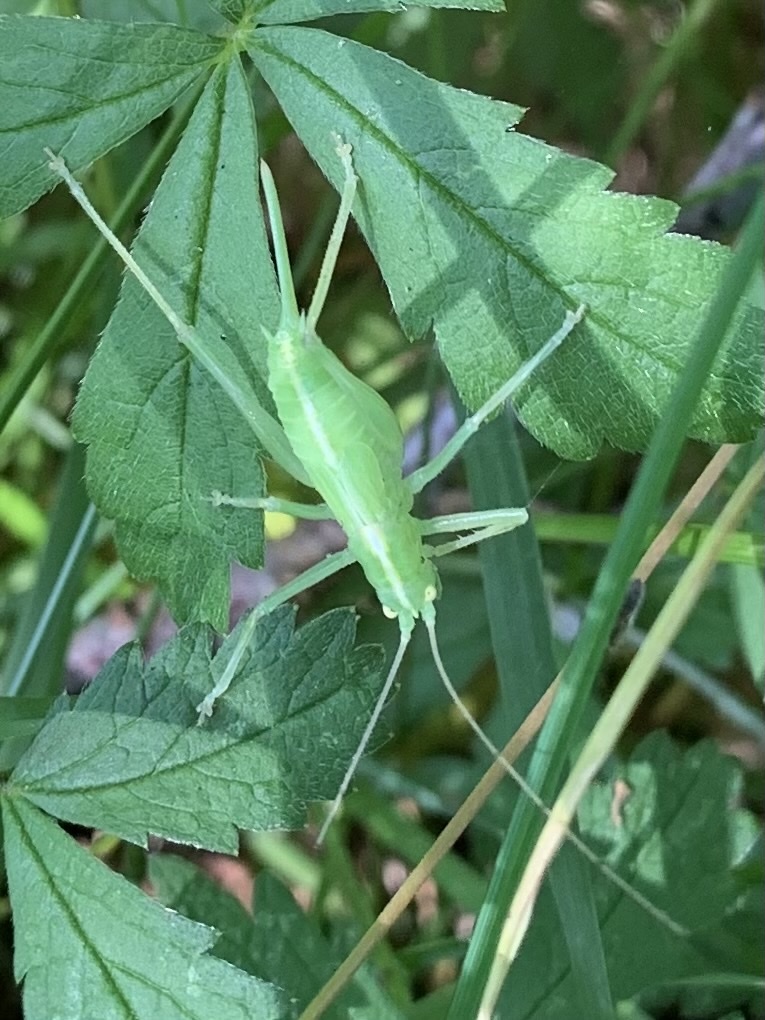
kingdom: Animalia
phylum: Arthropoda
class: Insecta
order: Orthoptera
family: Tettigoniidae
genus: Meconema
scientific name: Meconema thalassinum
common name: Oak bush-cricket
